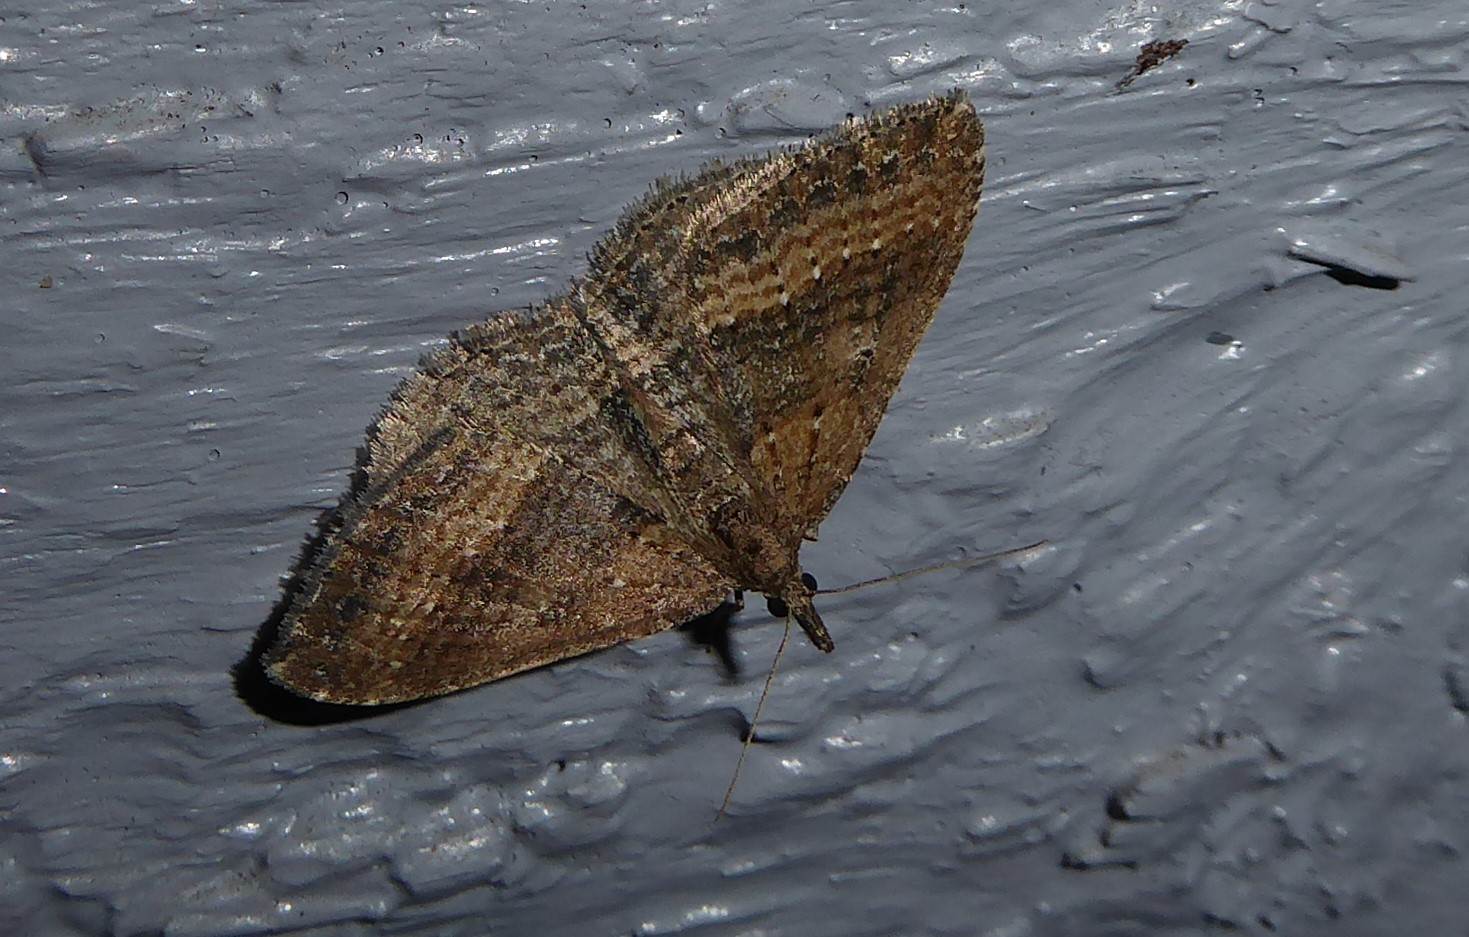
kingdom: Animalia
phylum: Arthropoda
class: Insecta
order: Lepidoptera
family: Geometridae
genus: Epyaxa
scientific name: Epyaxa venipunctata
